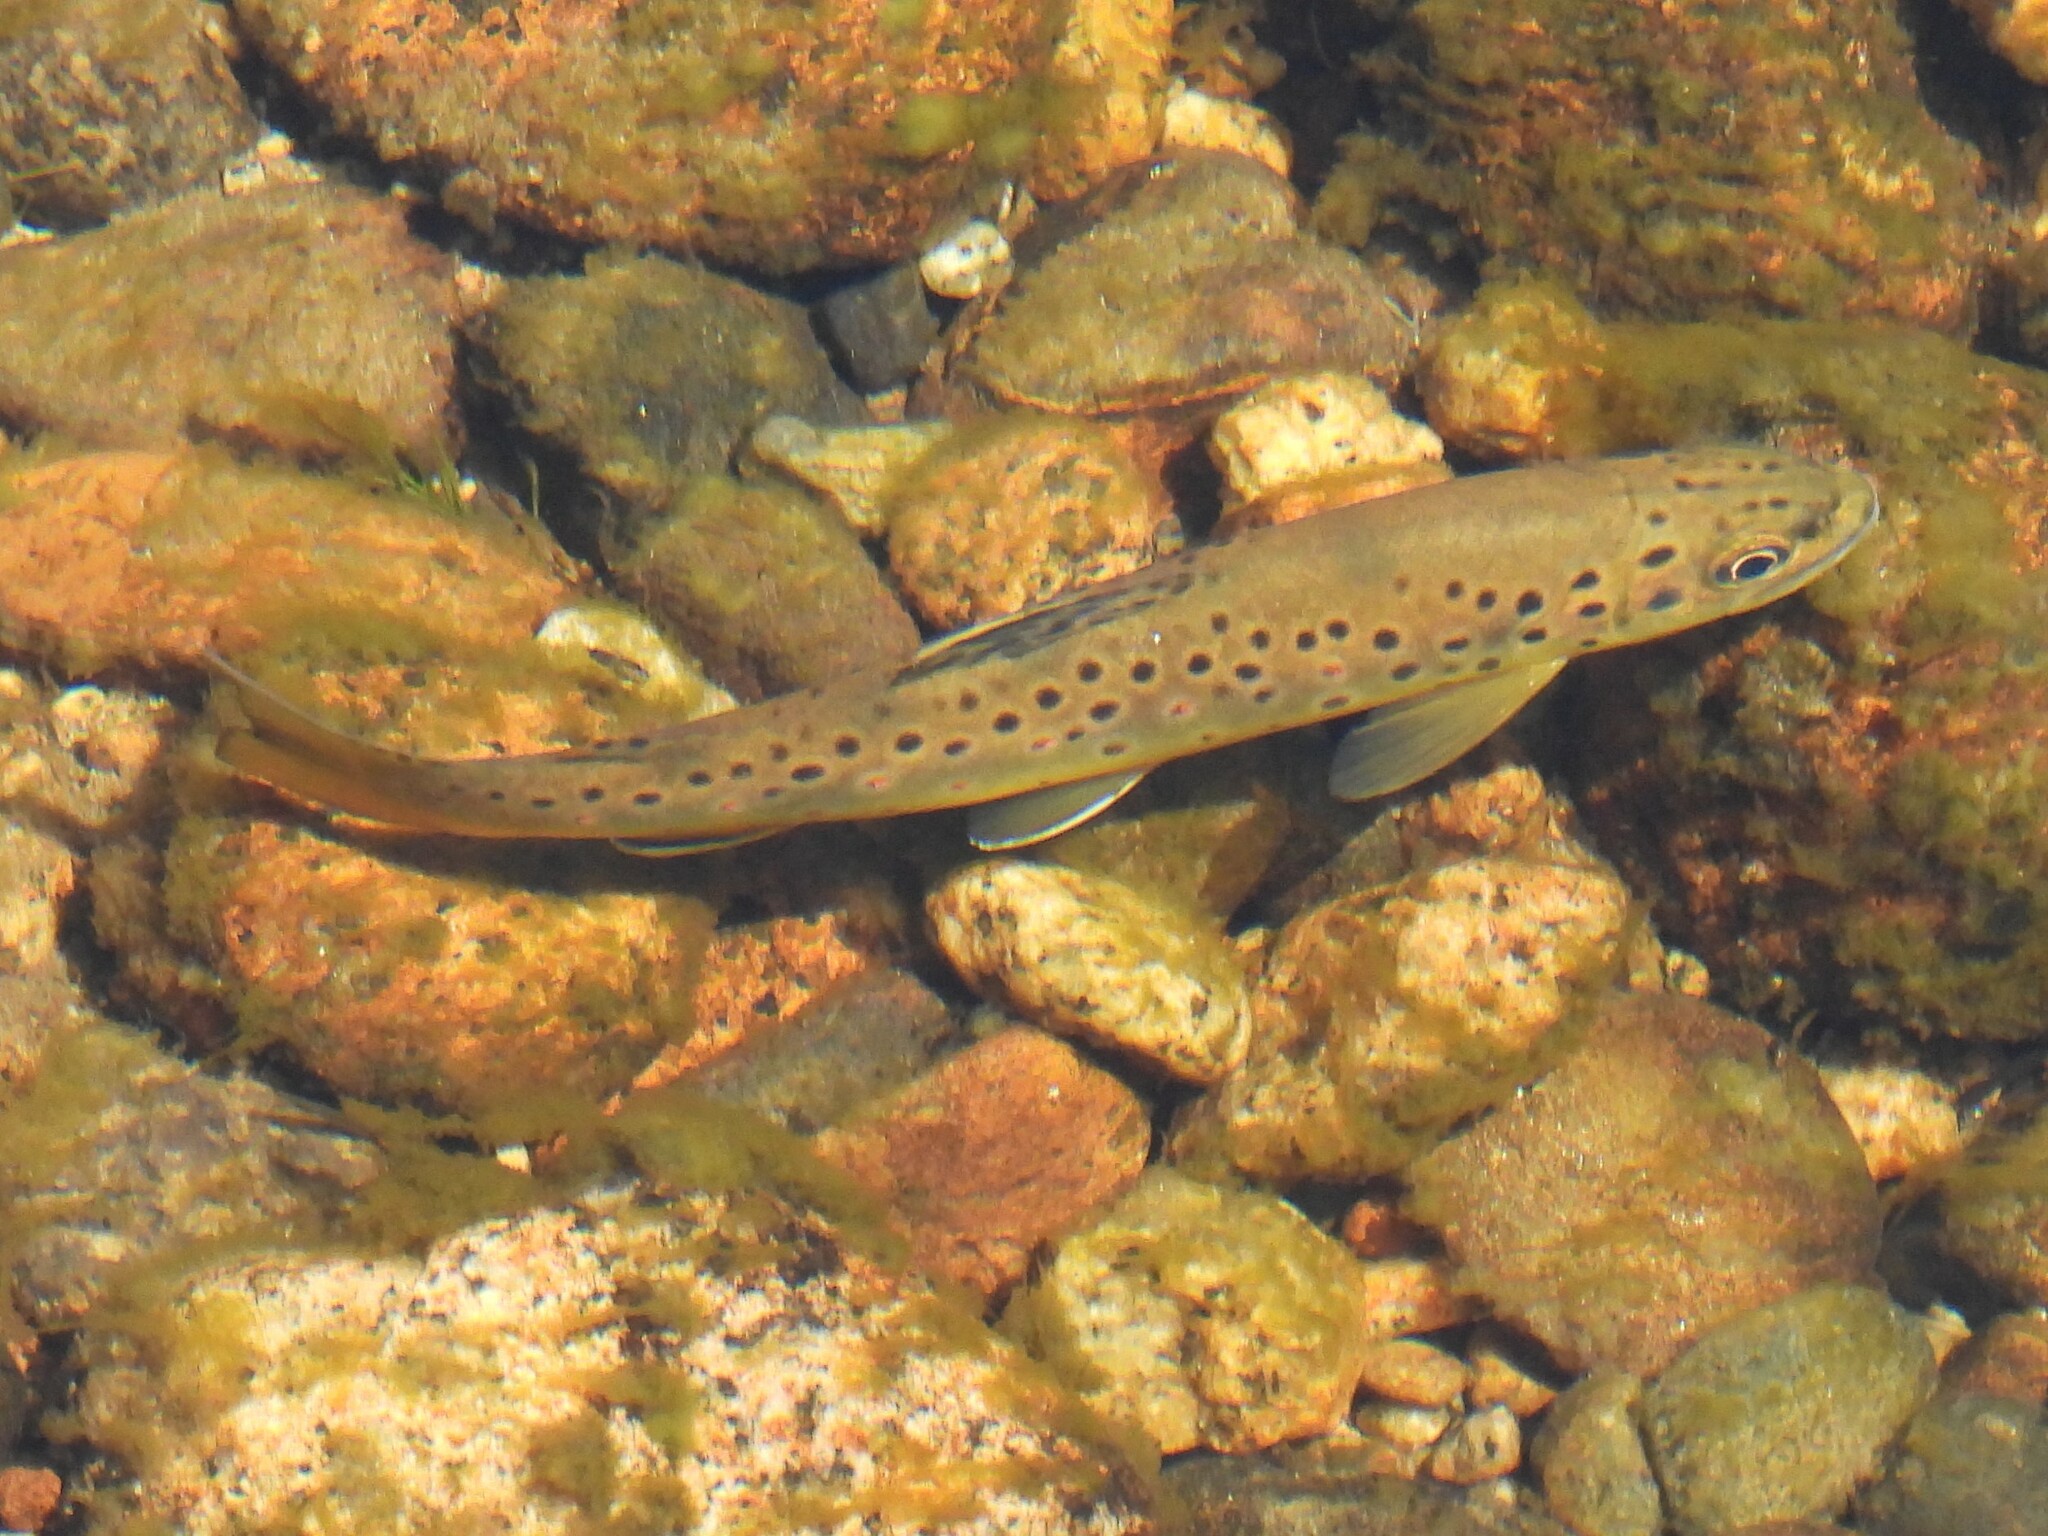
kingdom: Animalia
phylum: Chordata
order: Salmoniformes
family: Salmonidae
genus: Salmo
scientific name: Salmo trutta
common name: Brown trout
